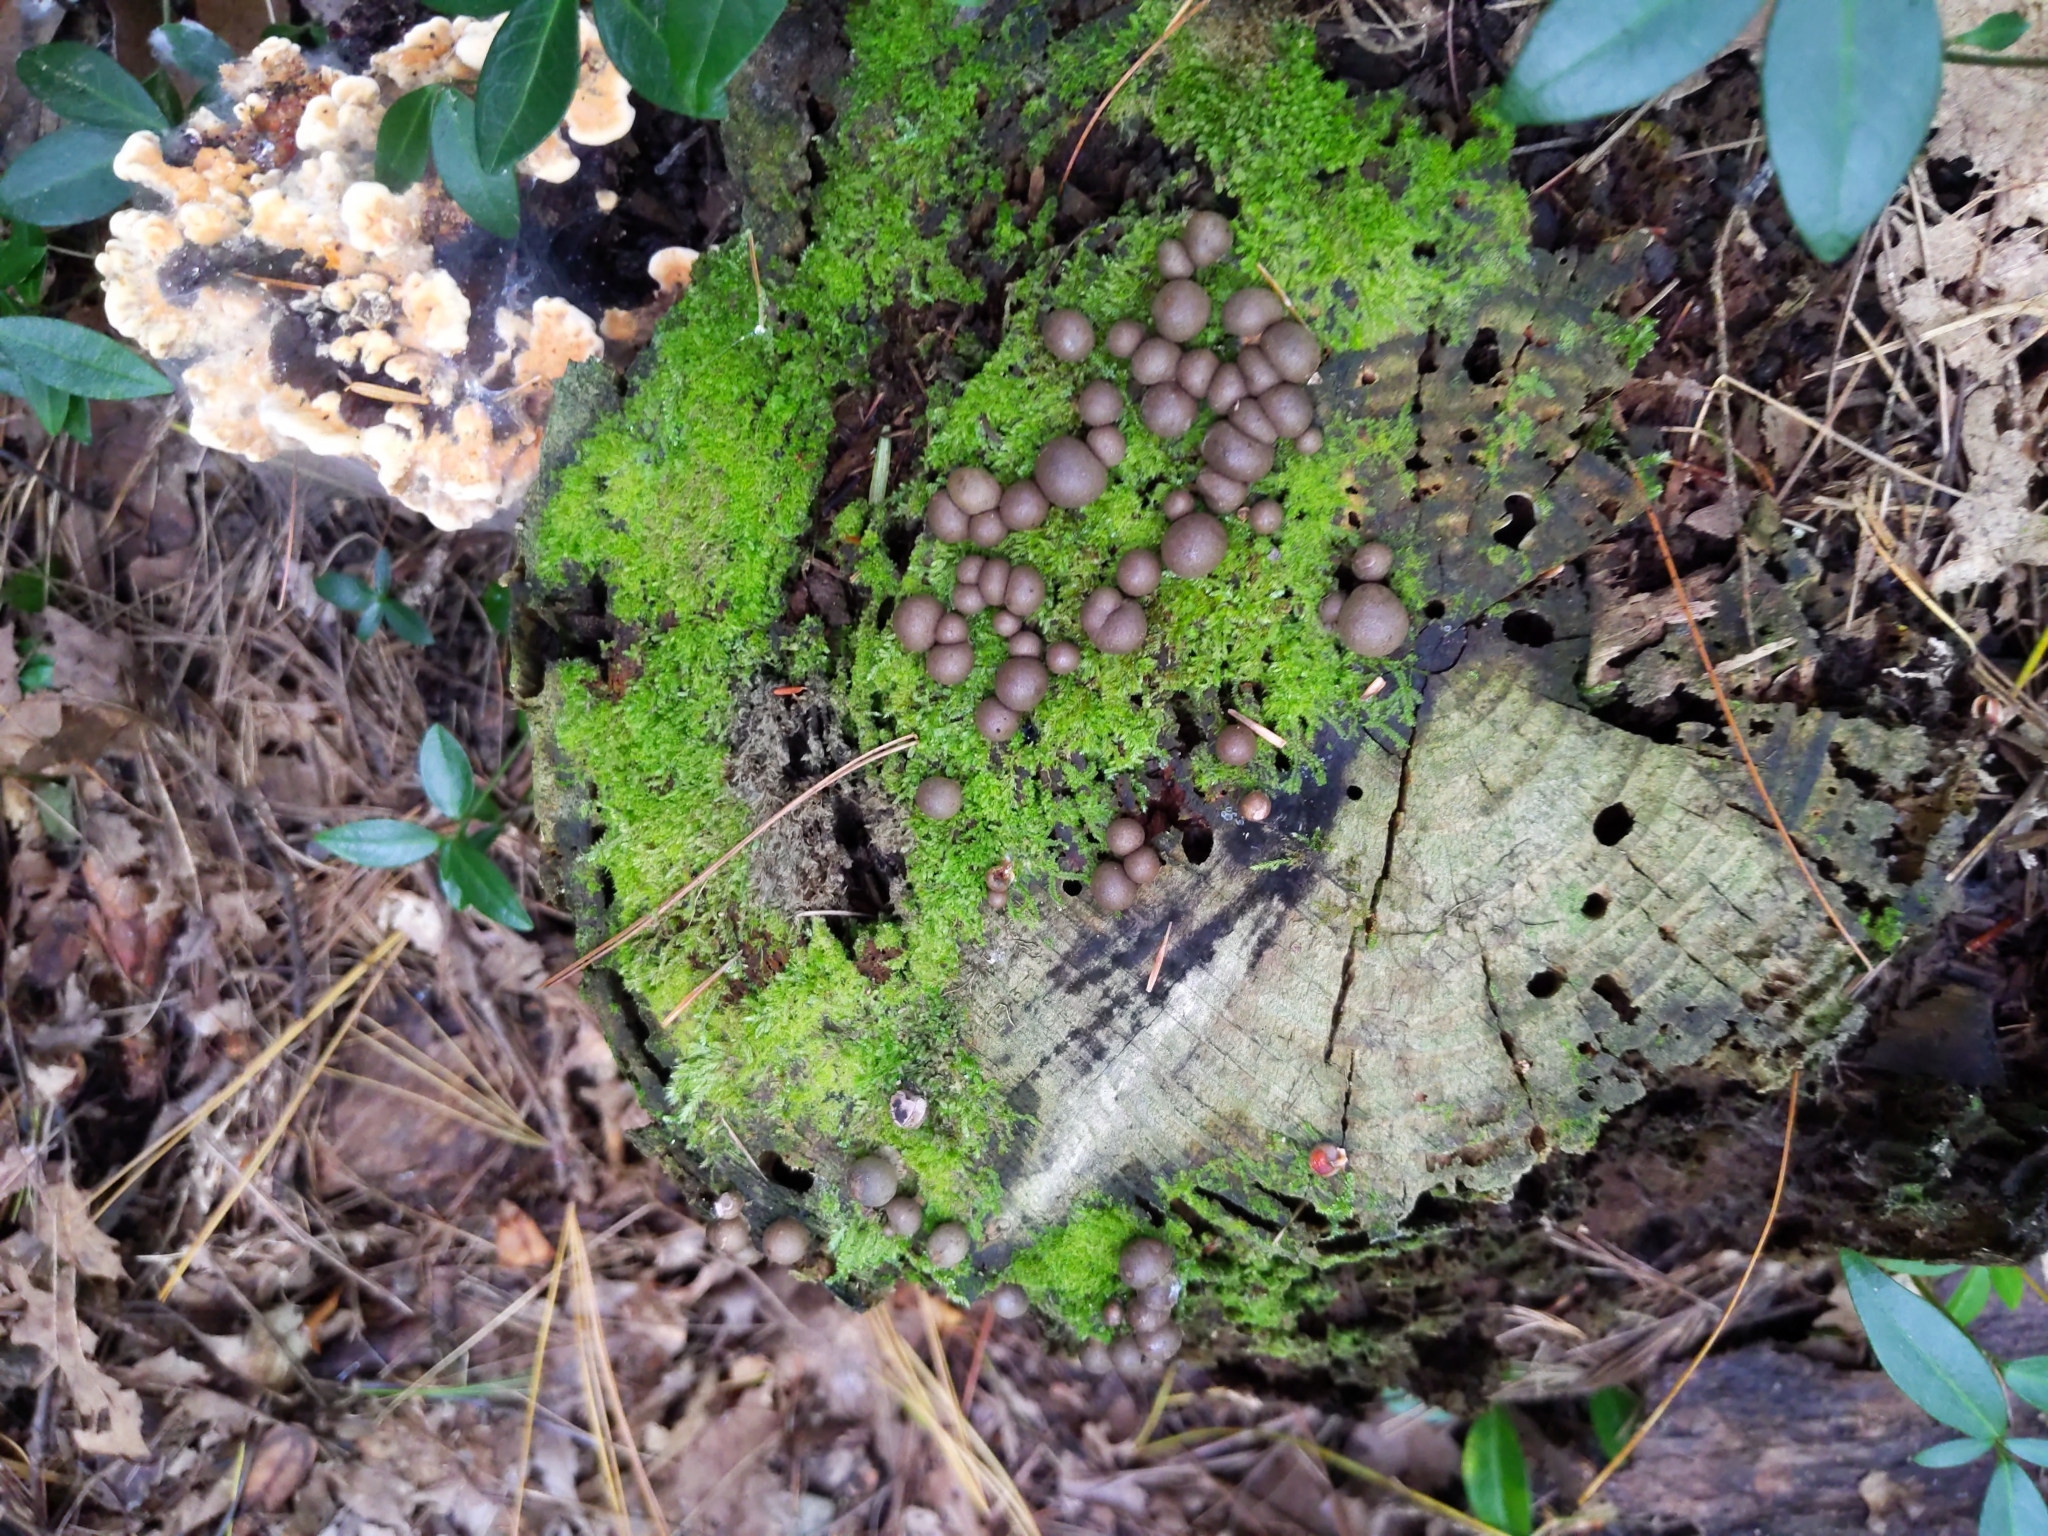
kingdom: Protozoa
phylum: Mycetozoa
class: Myxomycetes
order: Cribrariales
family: Tubiferaceae
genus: Lycogala
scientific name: Lycogala epidendrum
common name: Wolf's milk
